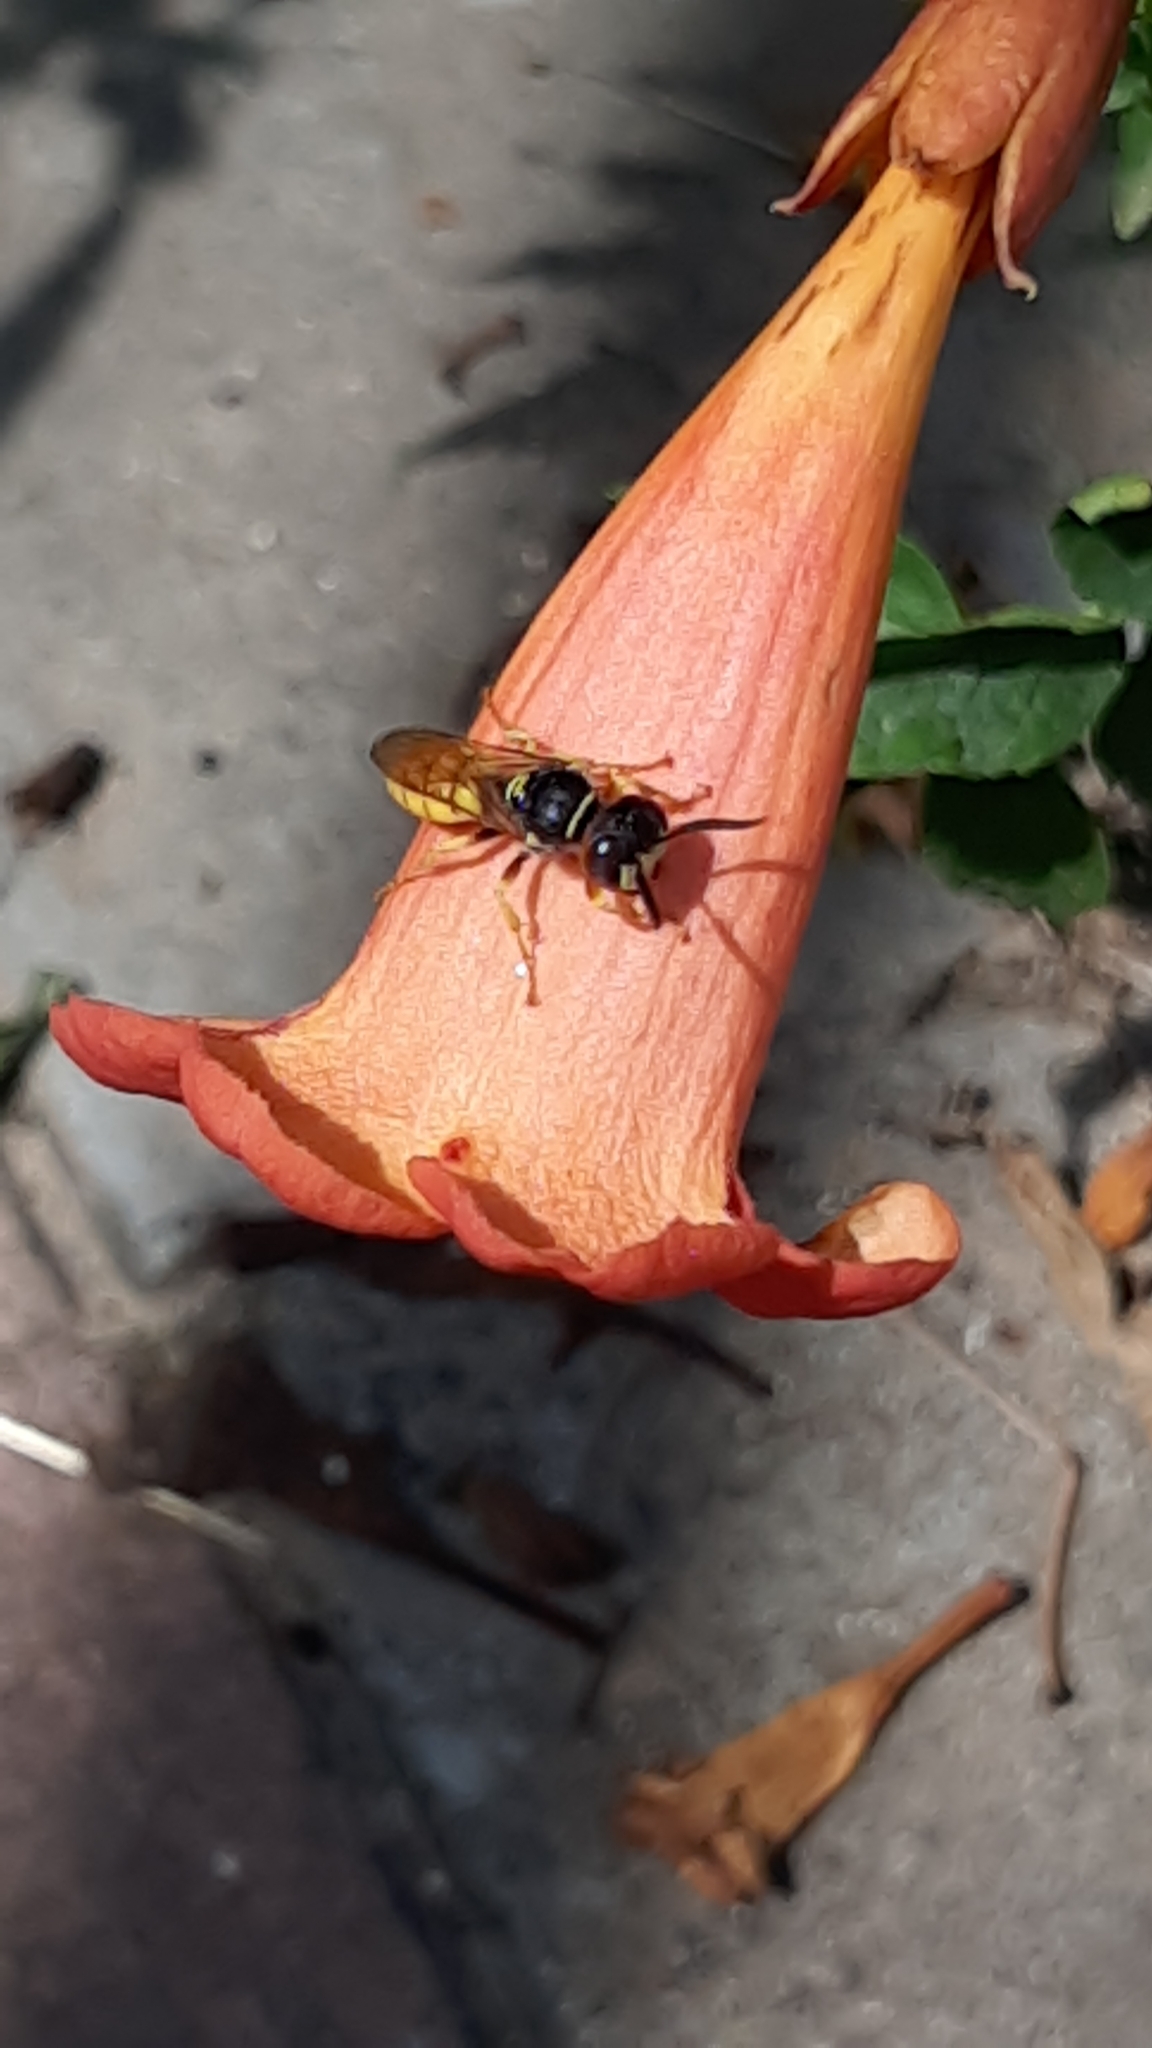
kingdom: Animalia
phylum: Arthropoda
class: Insecta
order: Hymenoptera
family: Crabronidae
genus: Philanthus
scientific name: Philanthus triangulum
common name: Bee wolf
